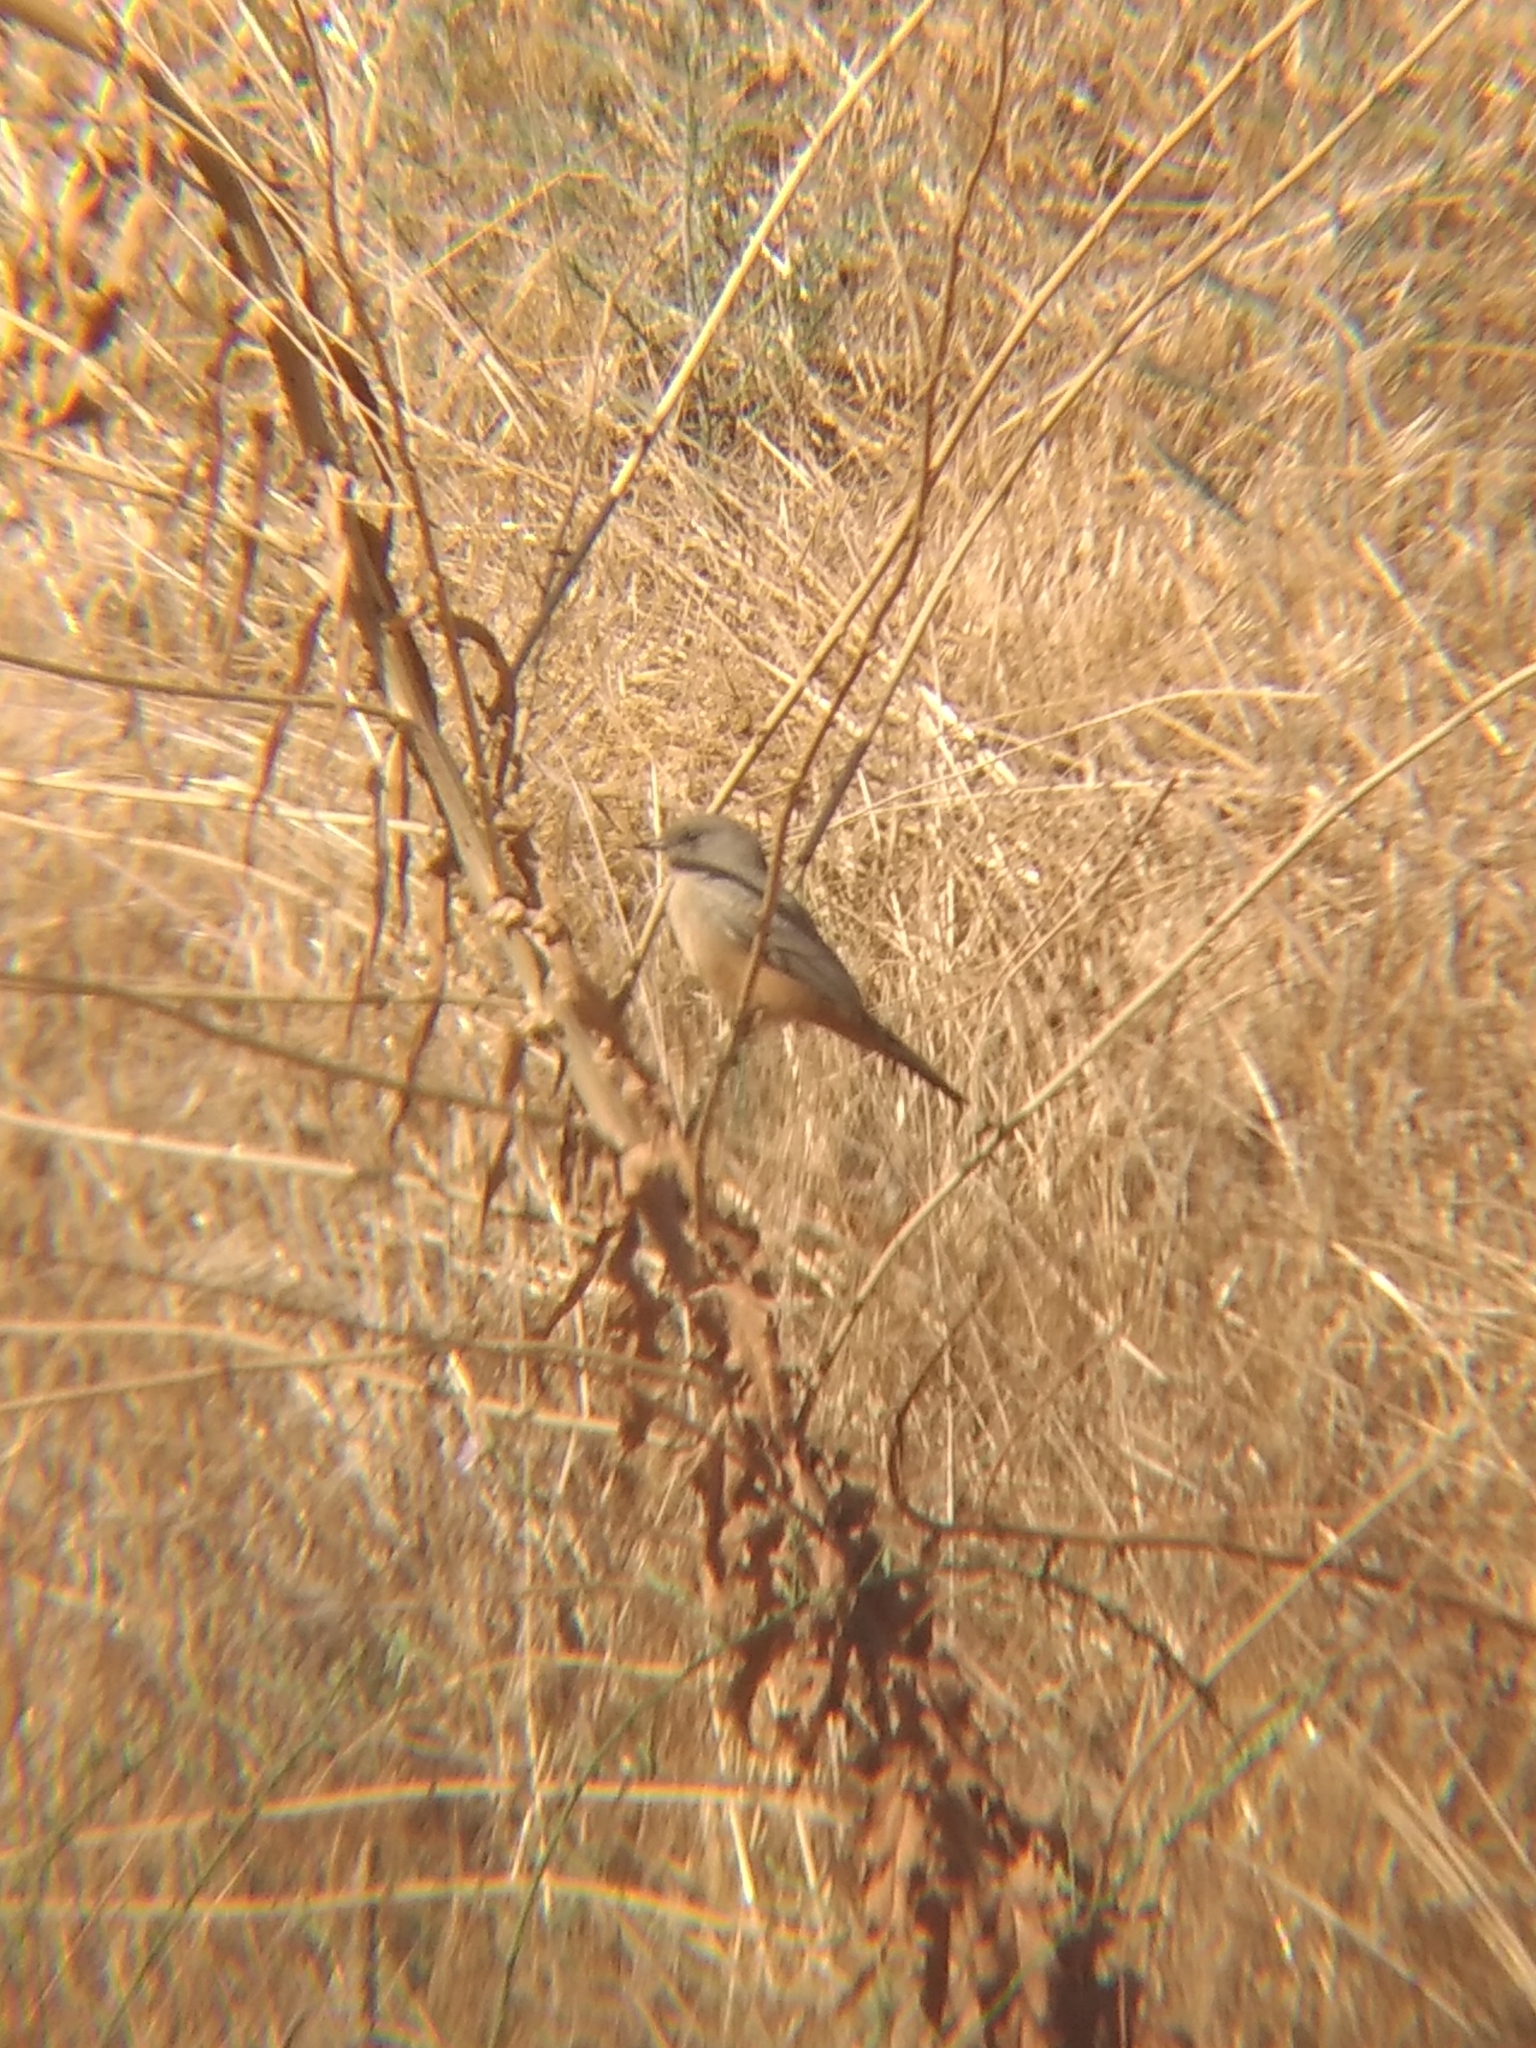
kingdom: Animalia
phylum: Chordata
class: Aves
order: Passeriformes
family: Tyrannidae
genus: Sayornis
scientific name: Sayornis saya
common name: Say's phoebe
